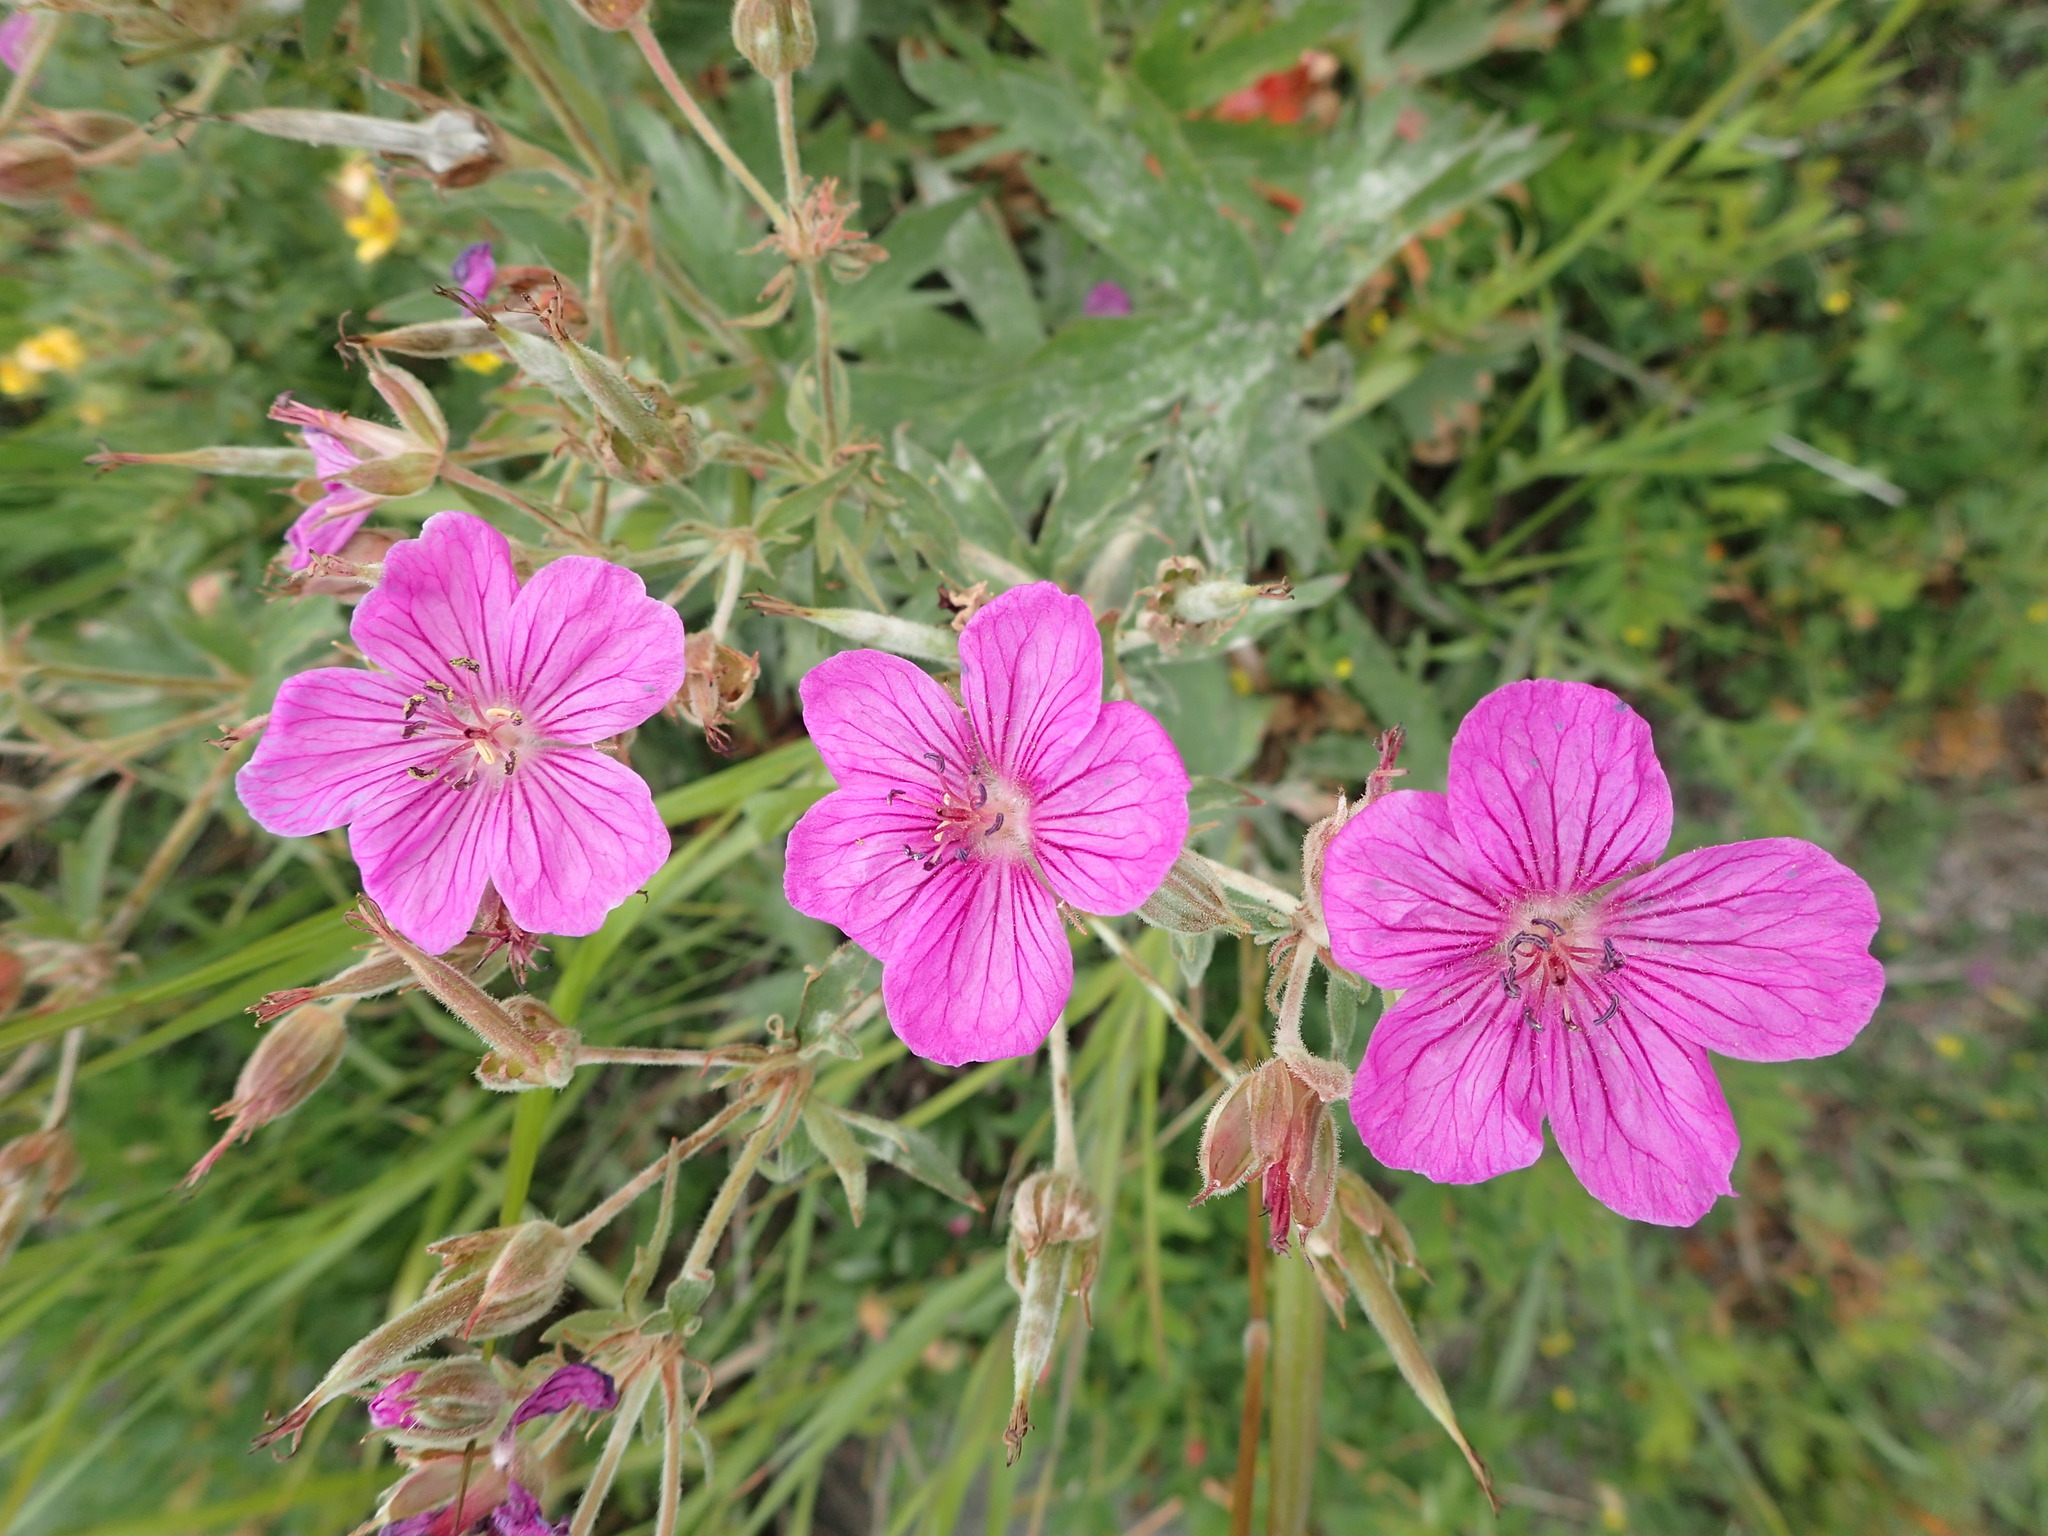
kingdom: Plantae
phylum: Tracheophyta
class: Magnoliopsida
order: Geraniales
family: Geraniaceae
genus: Geranium
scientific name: Geranium viscosissimum
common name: Purple geranium
